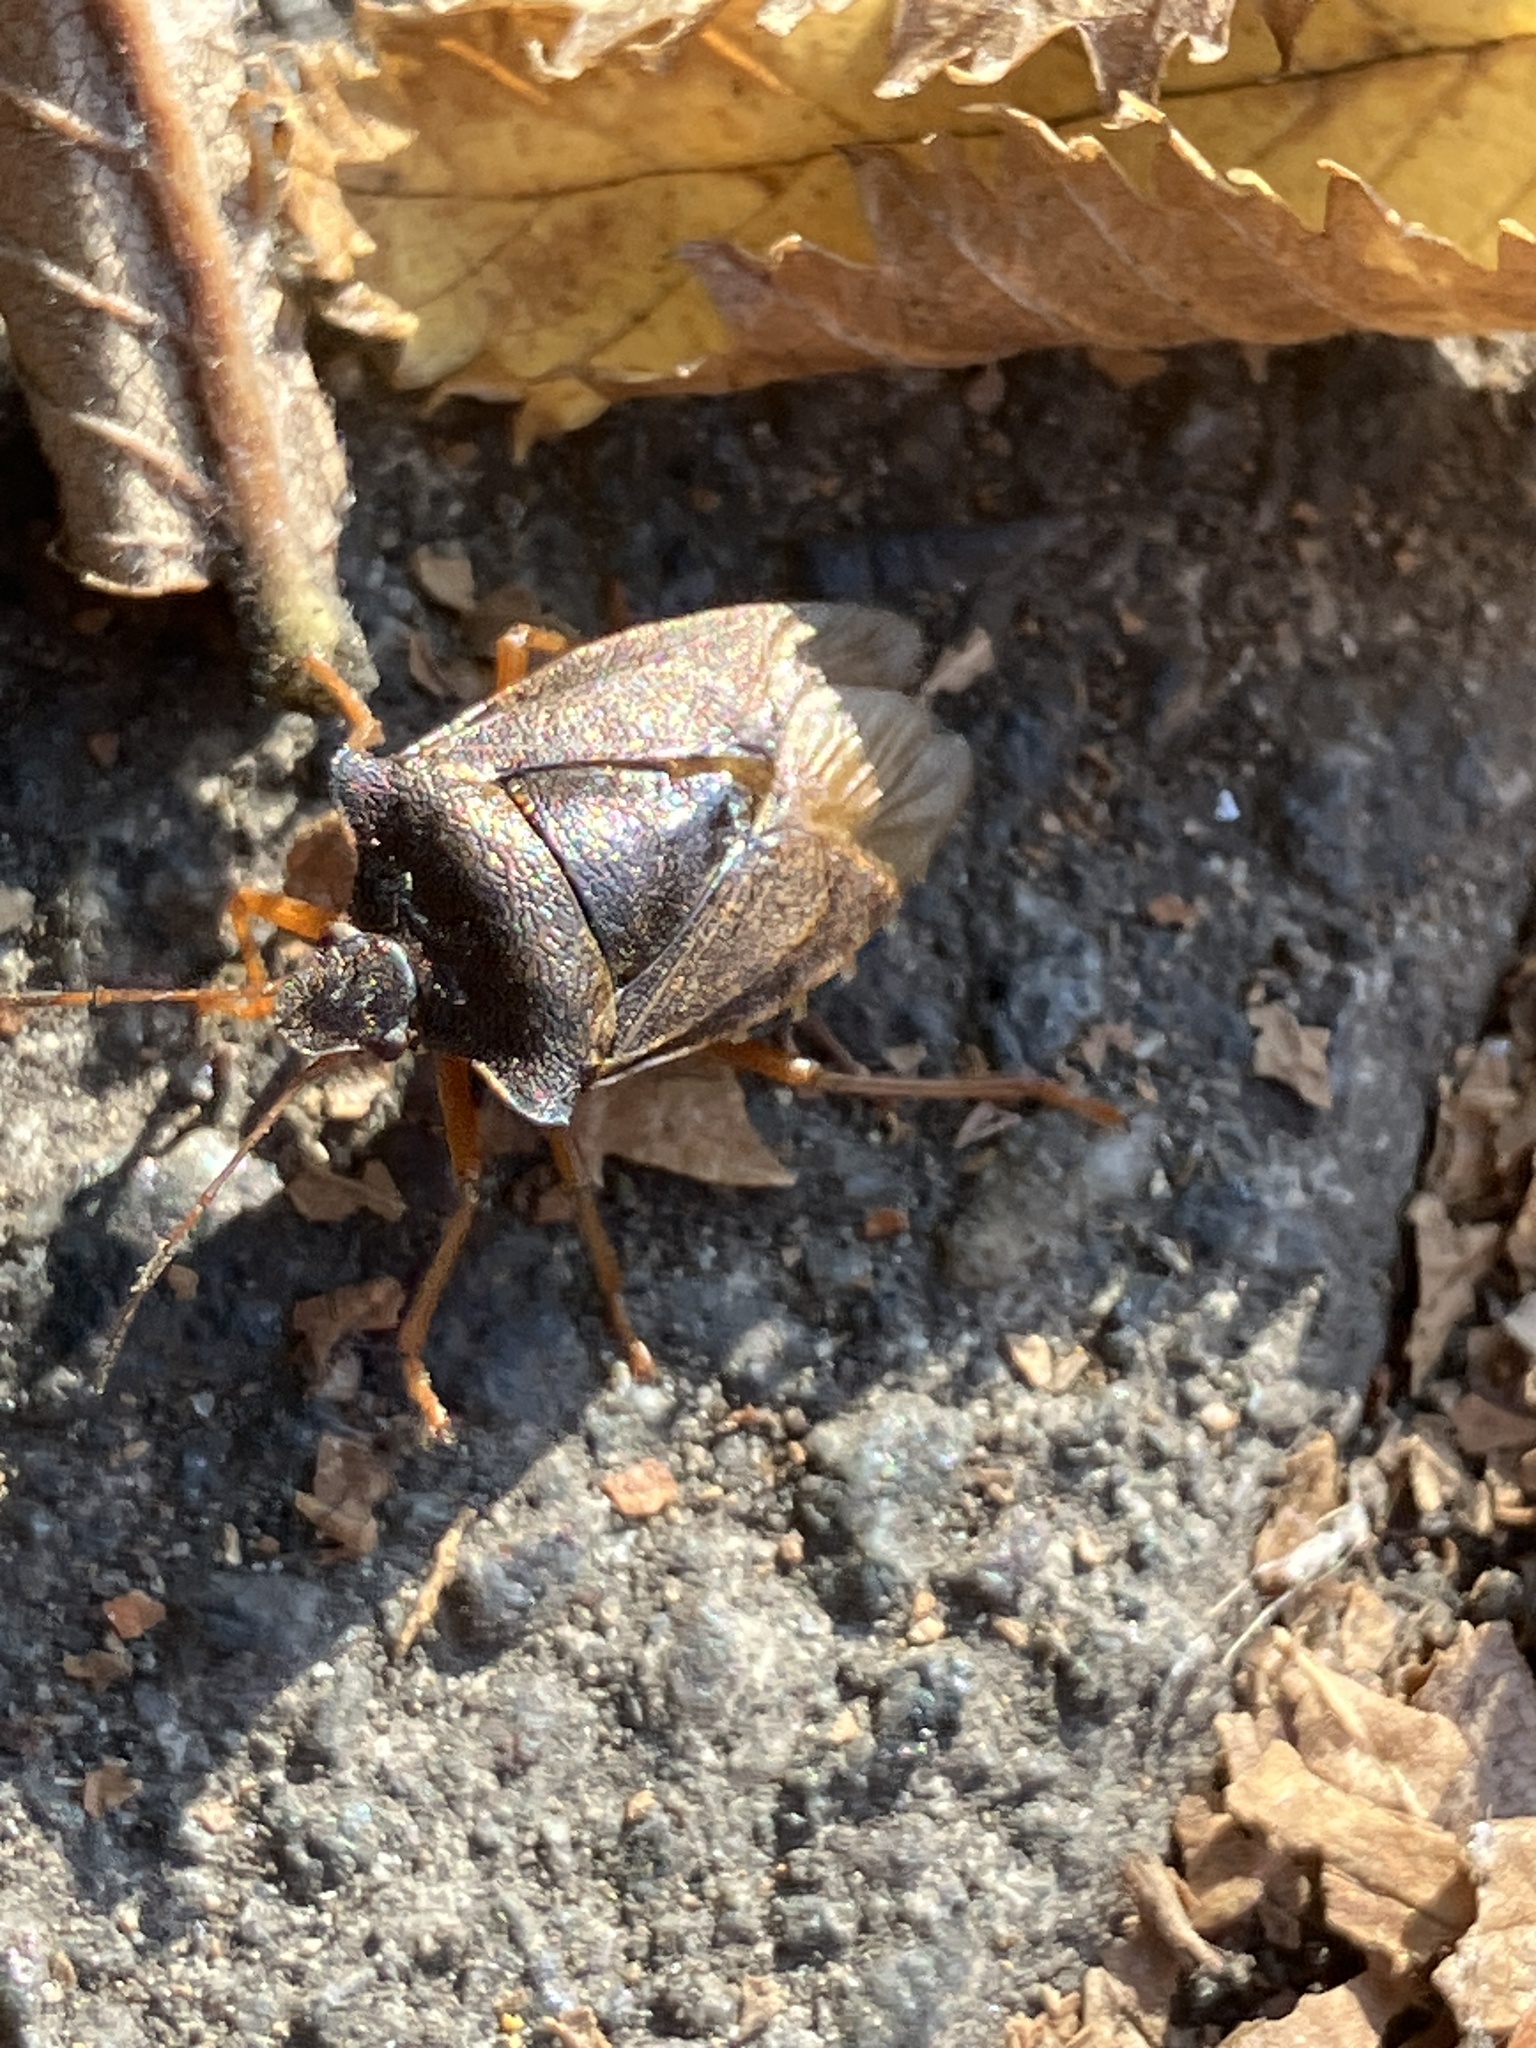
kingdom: Animalia
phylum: Arthropoda
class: Insecta
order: Hemiptera
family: Pentatomidae
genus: Pentatoma
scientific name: Pentatoma rufipes
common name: Forest bug
